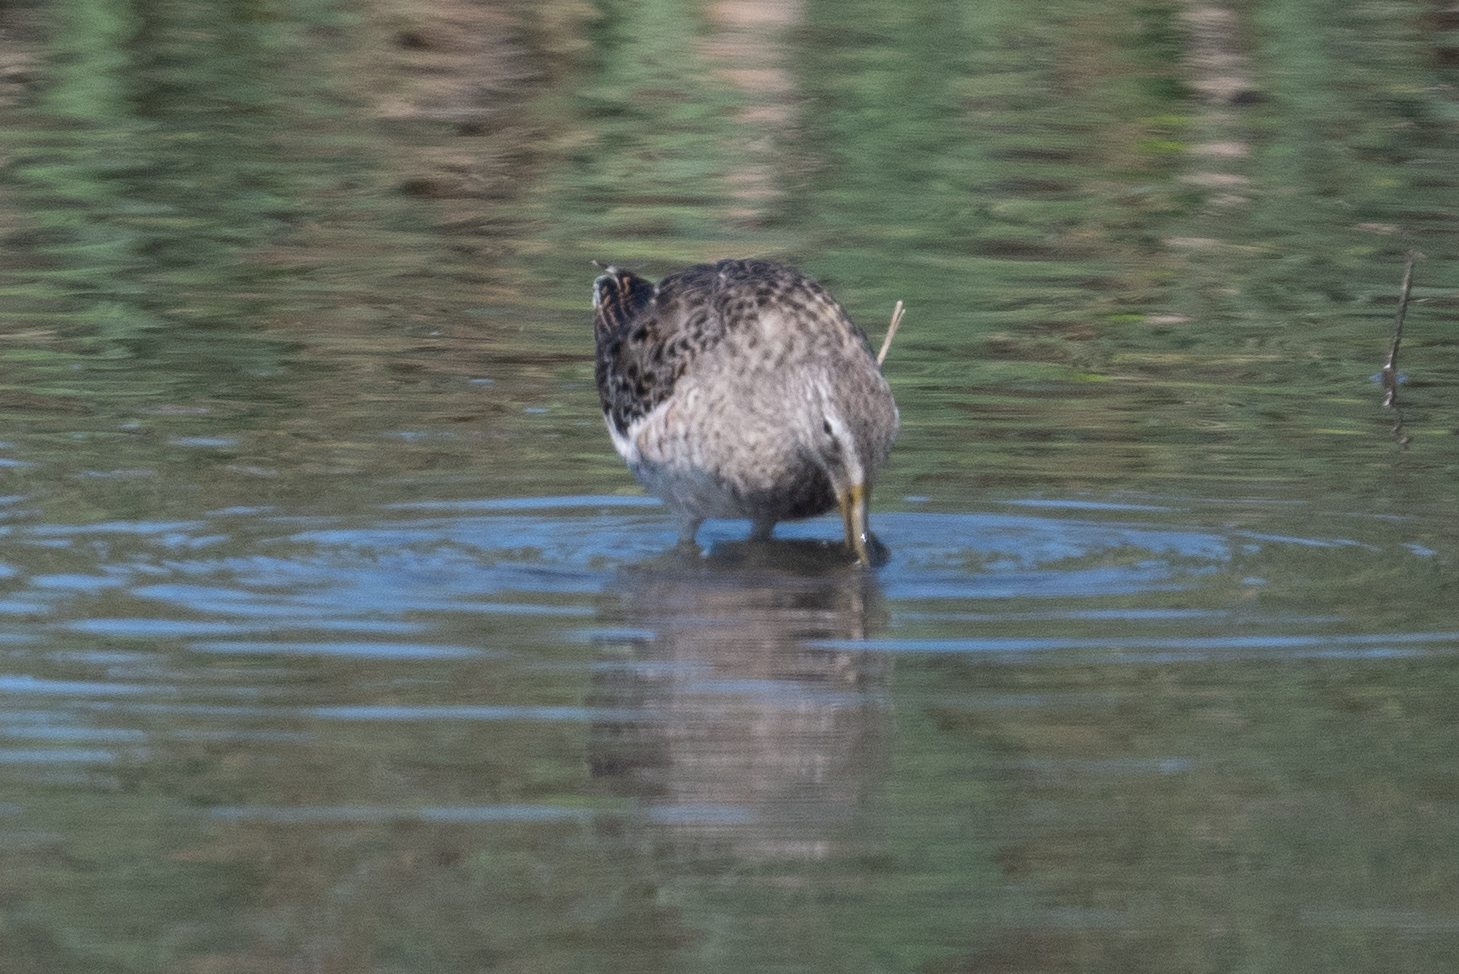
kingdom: Animalia
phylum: Chordata
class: Aves
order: Charadriiformes
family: Scolopacidae
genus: Limnodromus
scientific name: Limnodromus scolopaceus
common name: Long-billed dowitcher
